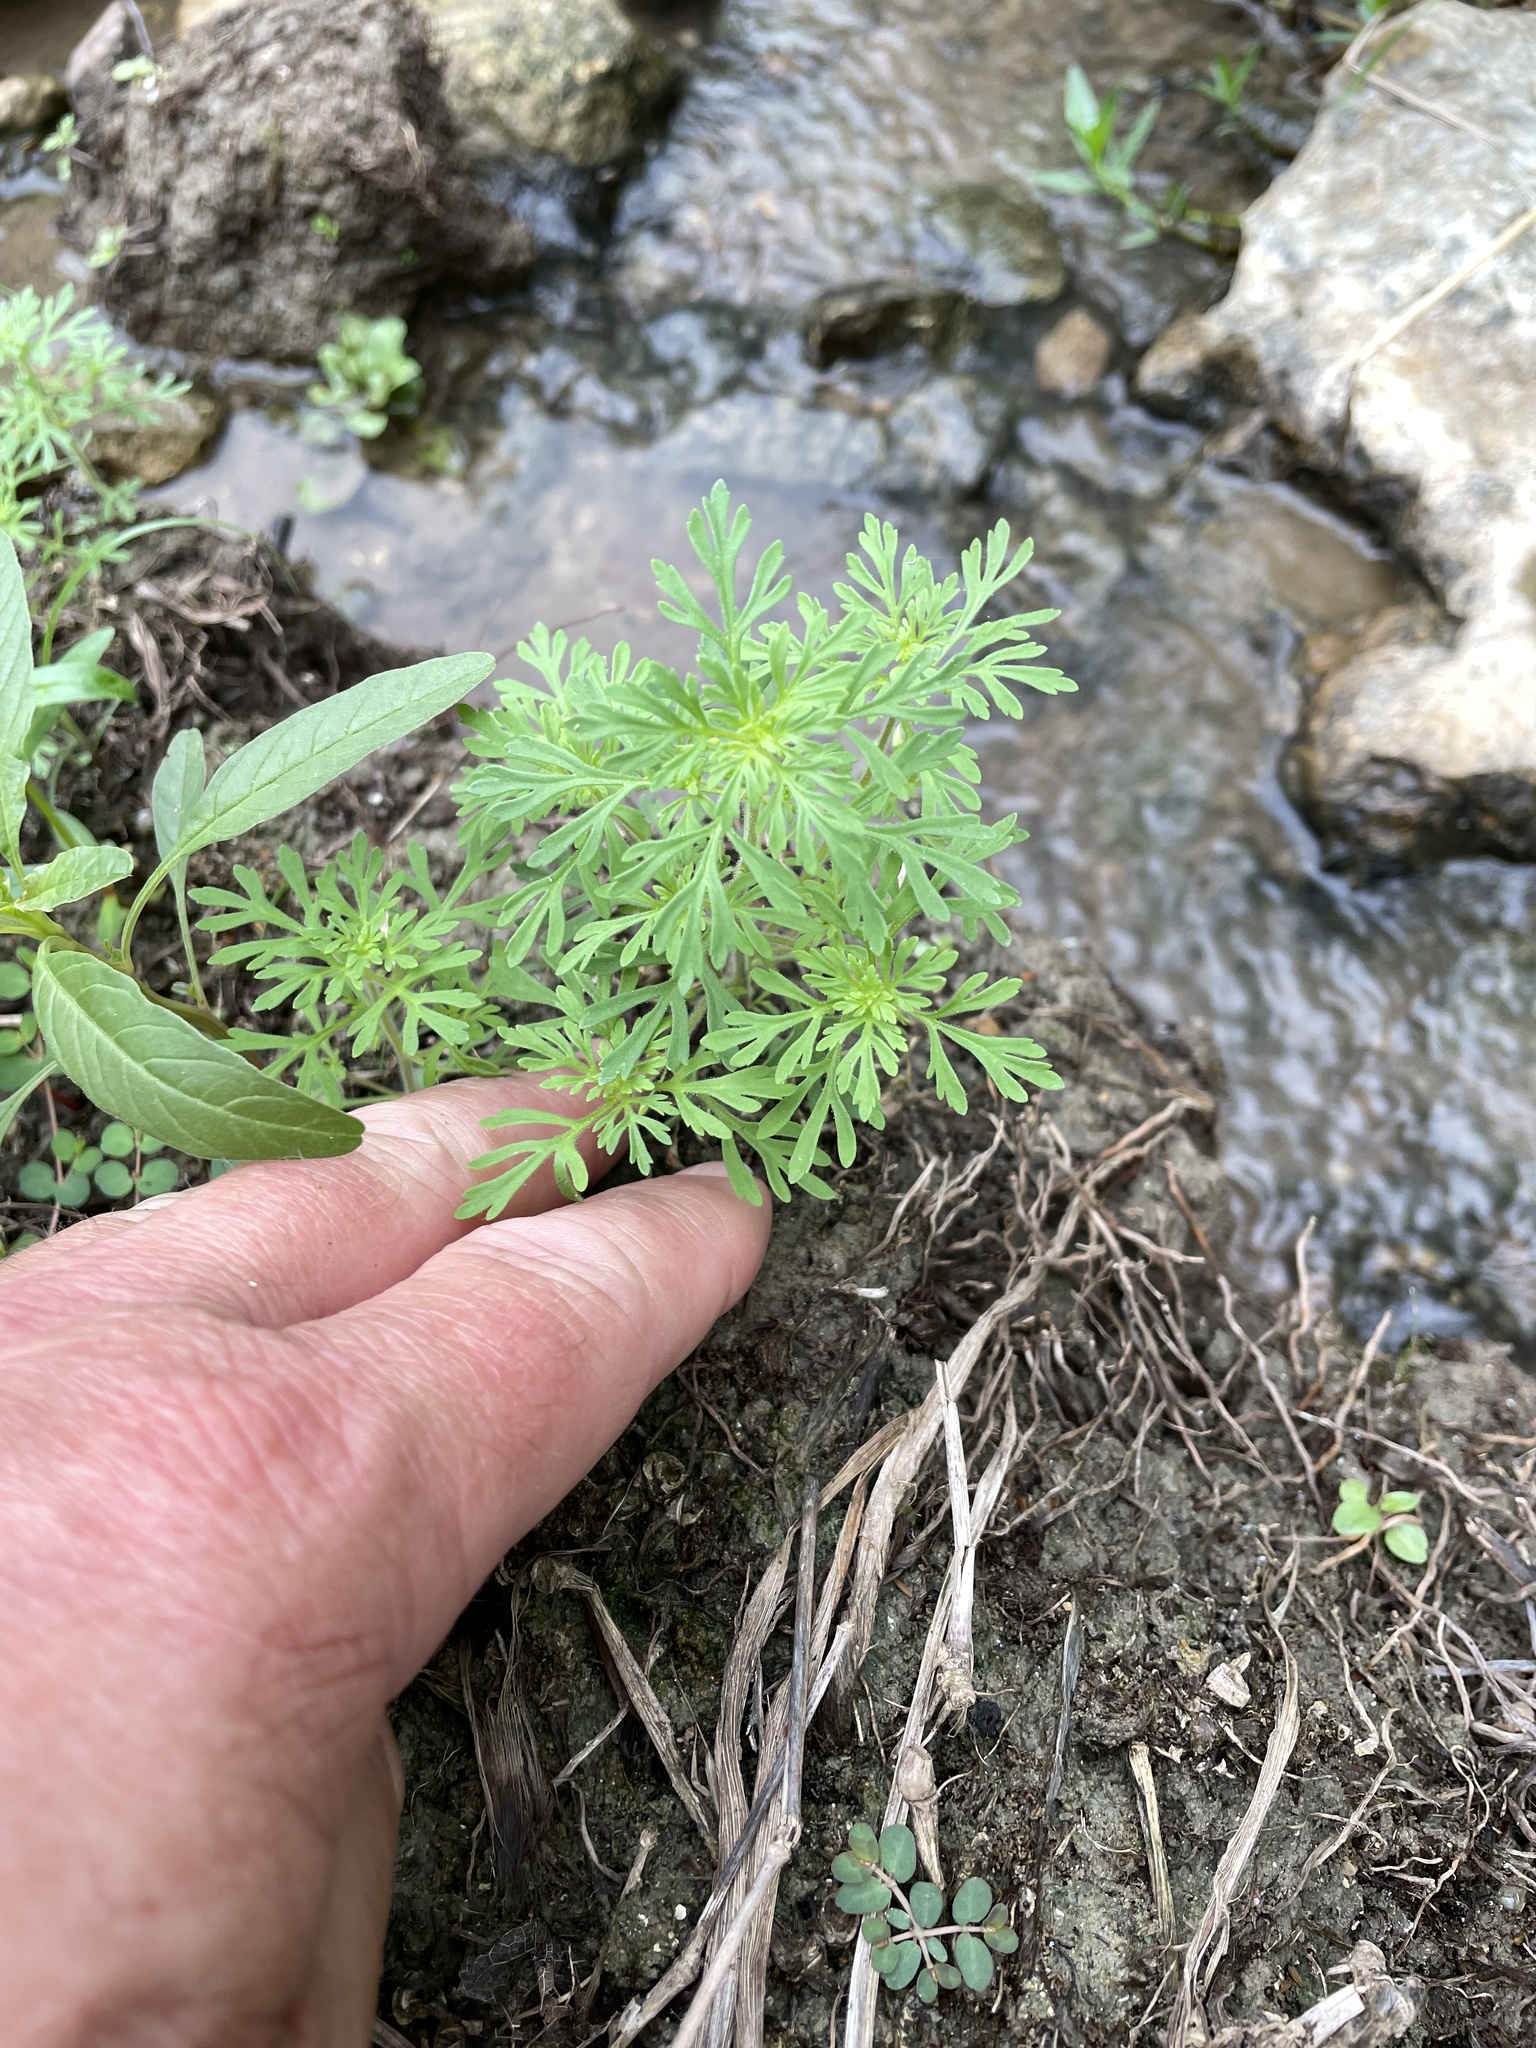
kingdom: Plantae
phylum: Tracheophyta
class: Magnoliopsida
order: Lamiales
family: Plantaginaceae
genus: Leucospora
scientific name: Leucospora multifida
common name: Narrow-leaf paleseed
